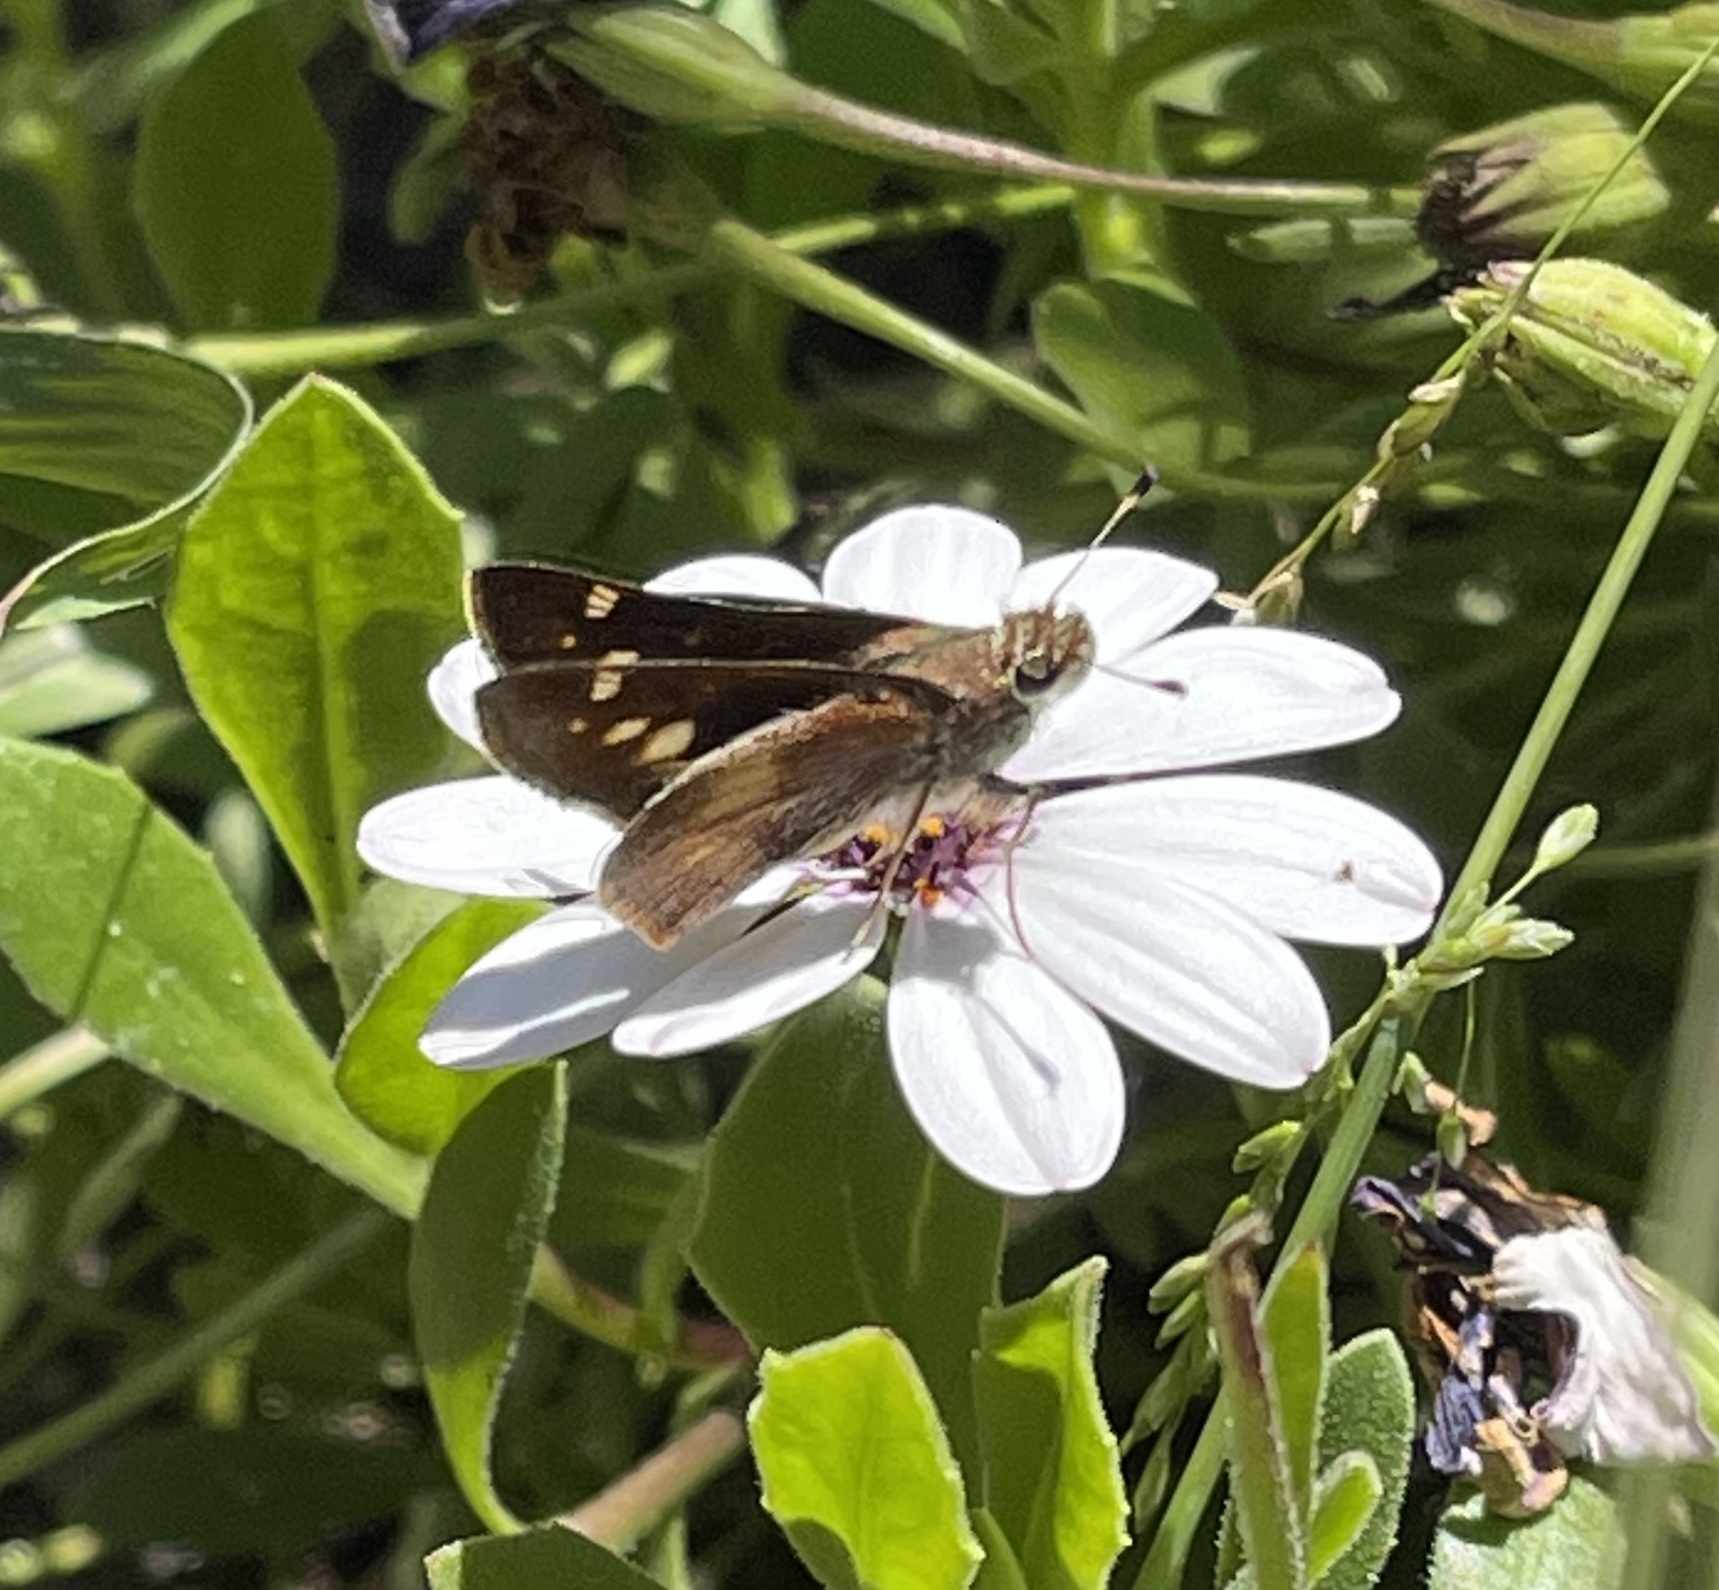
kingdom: Animalia
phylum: Arthropoda
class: Insecta
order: Lepidoptera
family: Hesperiidae
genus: Lon
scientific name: Lon melane
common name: Umber skipper
